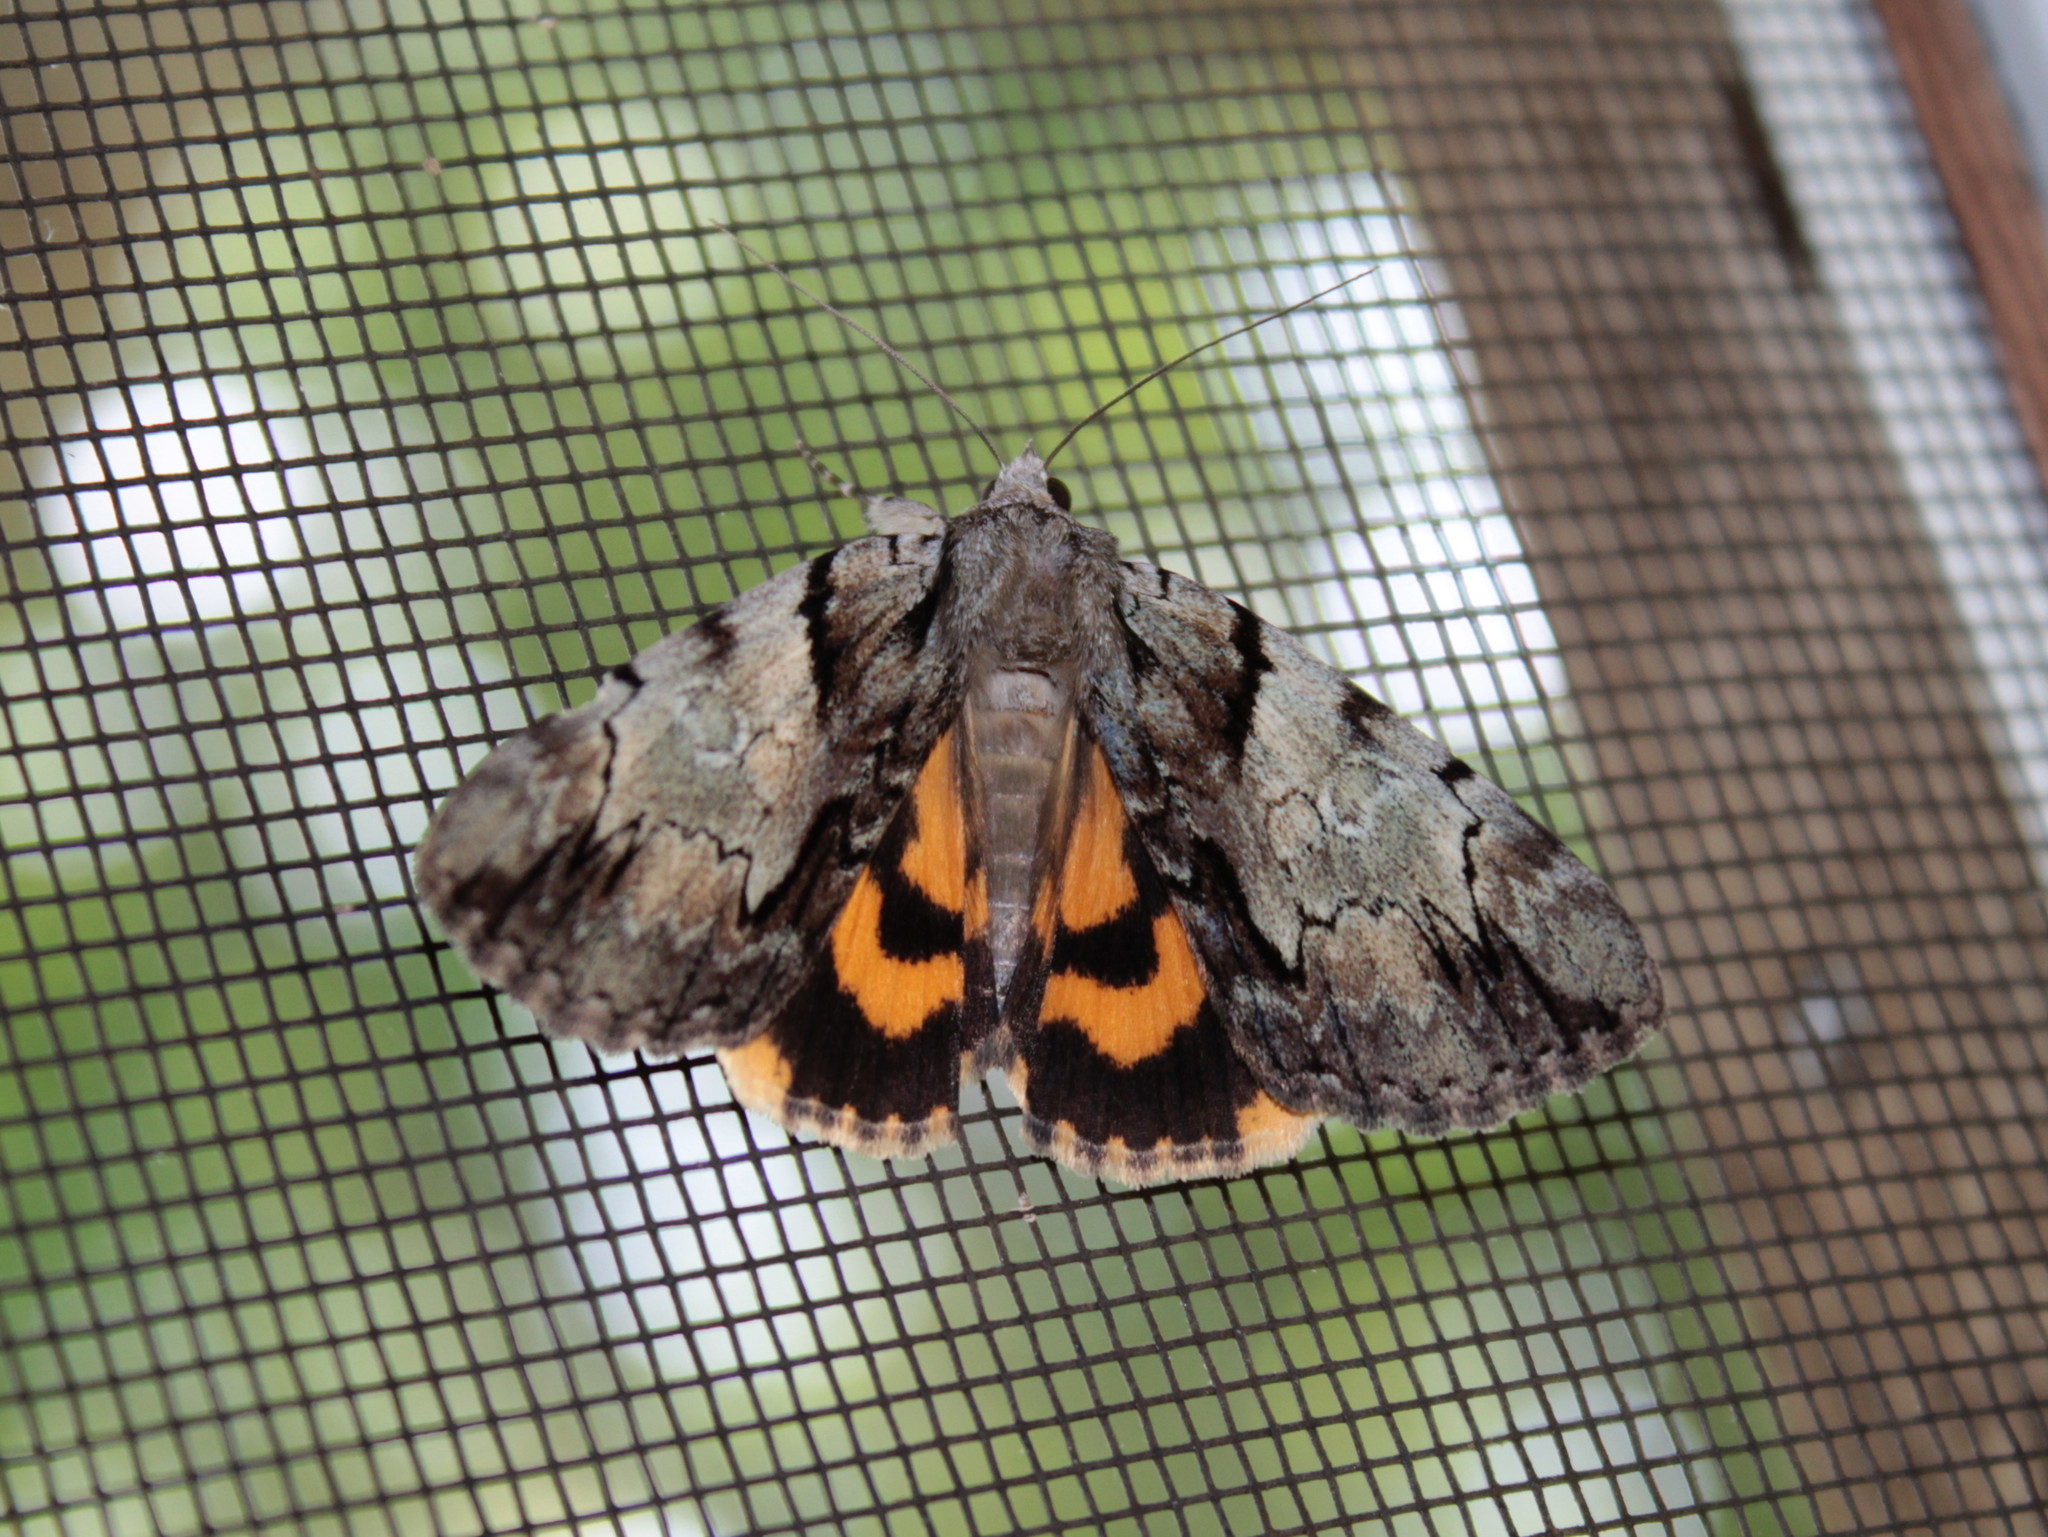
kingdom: Animalia
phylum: Arthropoda
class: Insecta
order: Lepidoptera
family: Erebidae
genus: Catocala
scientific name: Catocala blandula
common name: Charming underwing
